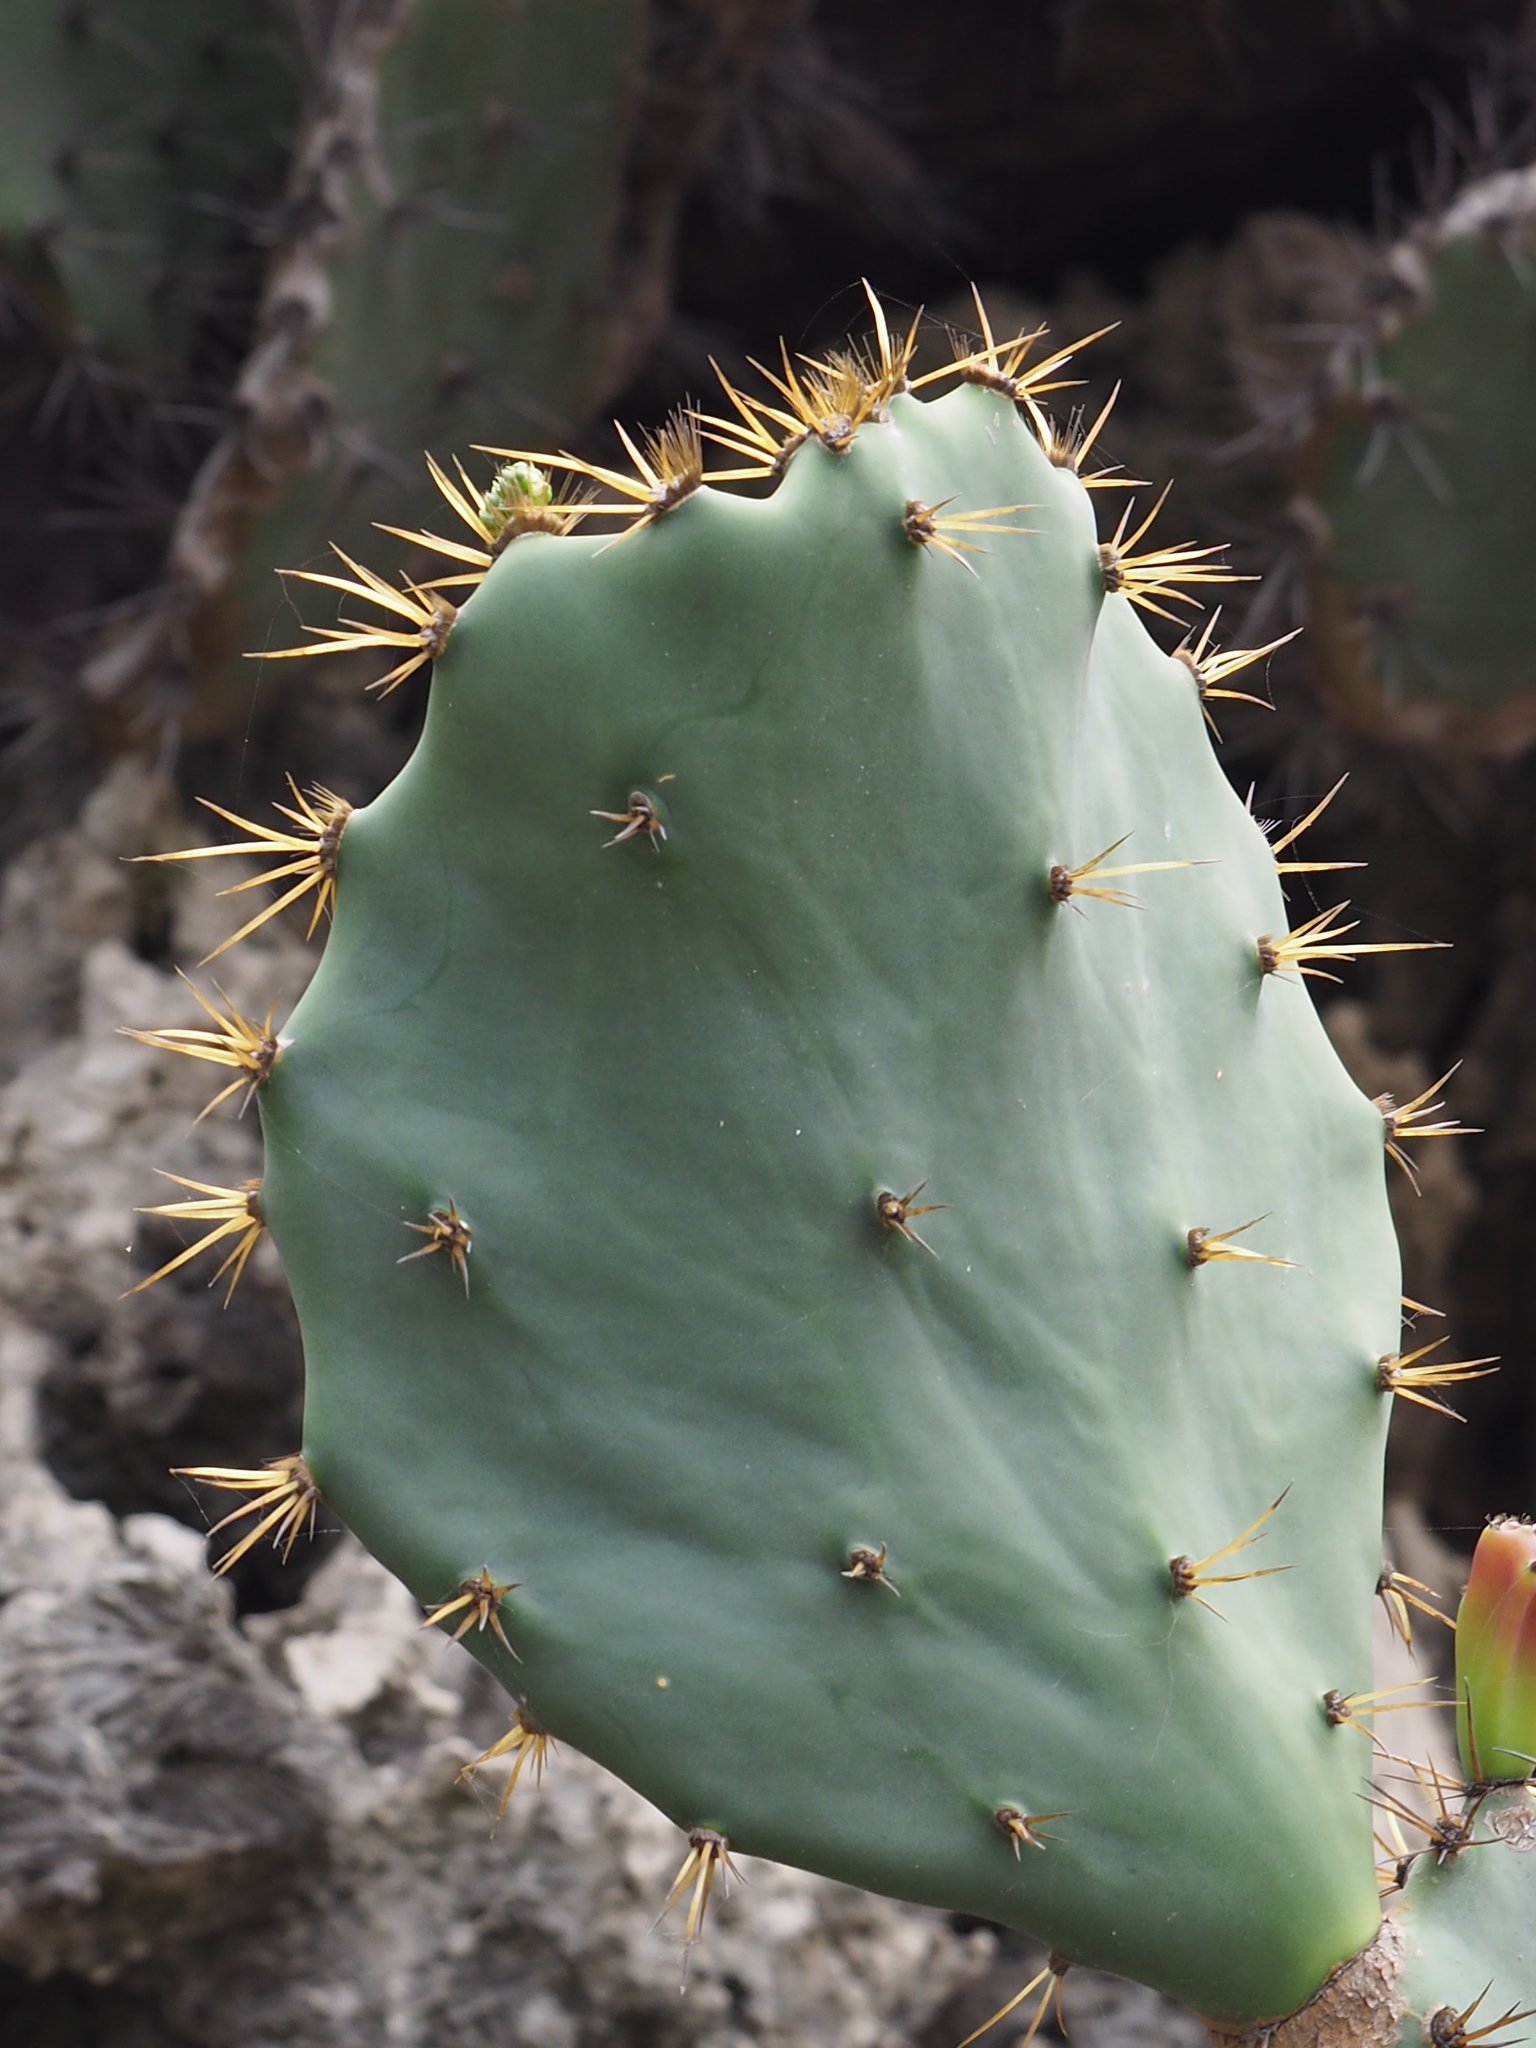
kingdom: Plantae
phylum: Tracheophyta
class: Magnoliopsida
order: Caryophyllales
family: Cactaceae
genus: Opuntia
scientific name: Opuntia dillenii
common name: Sour prickle
